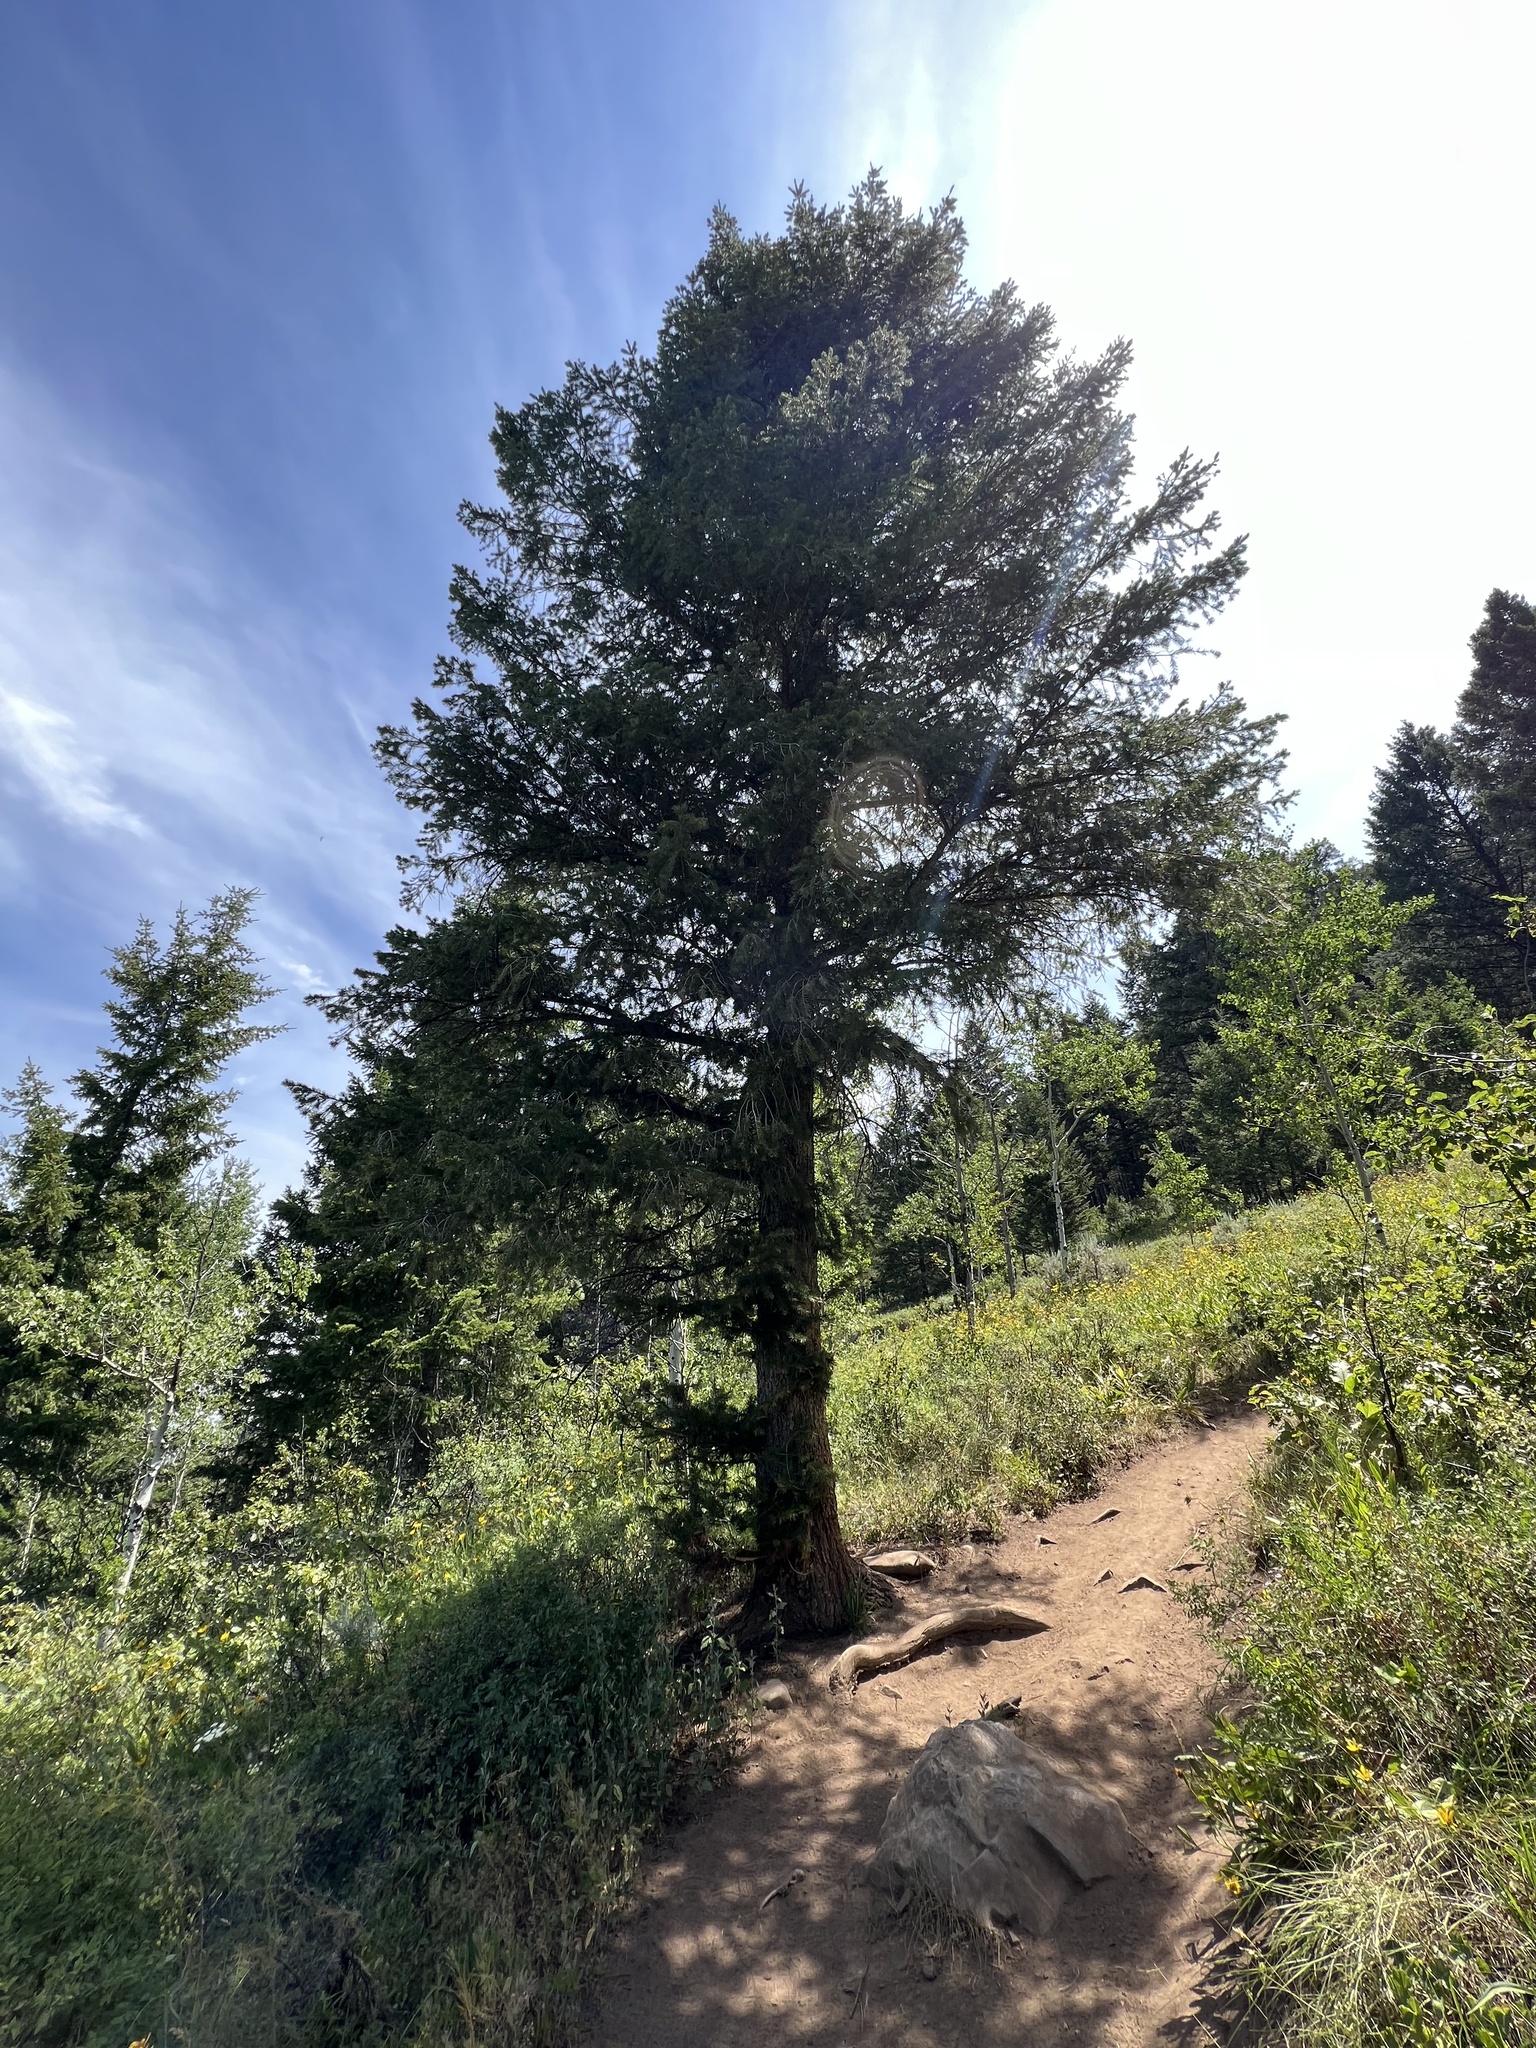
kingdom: Plantae
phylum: Tracheophyta
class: Pinopsida
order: Pinales
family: Pinaceae
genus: Pseudotsuga
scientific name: Pseudotsuga menziesii
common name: Douglas fir
